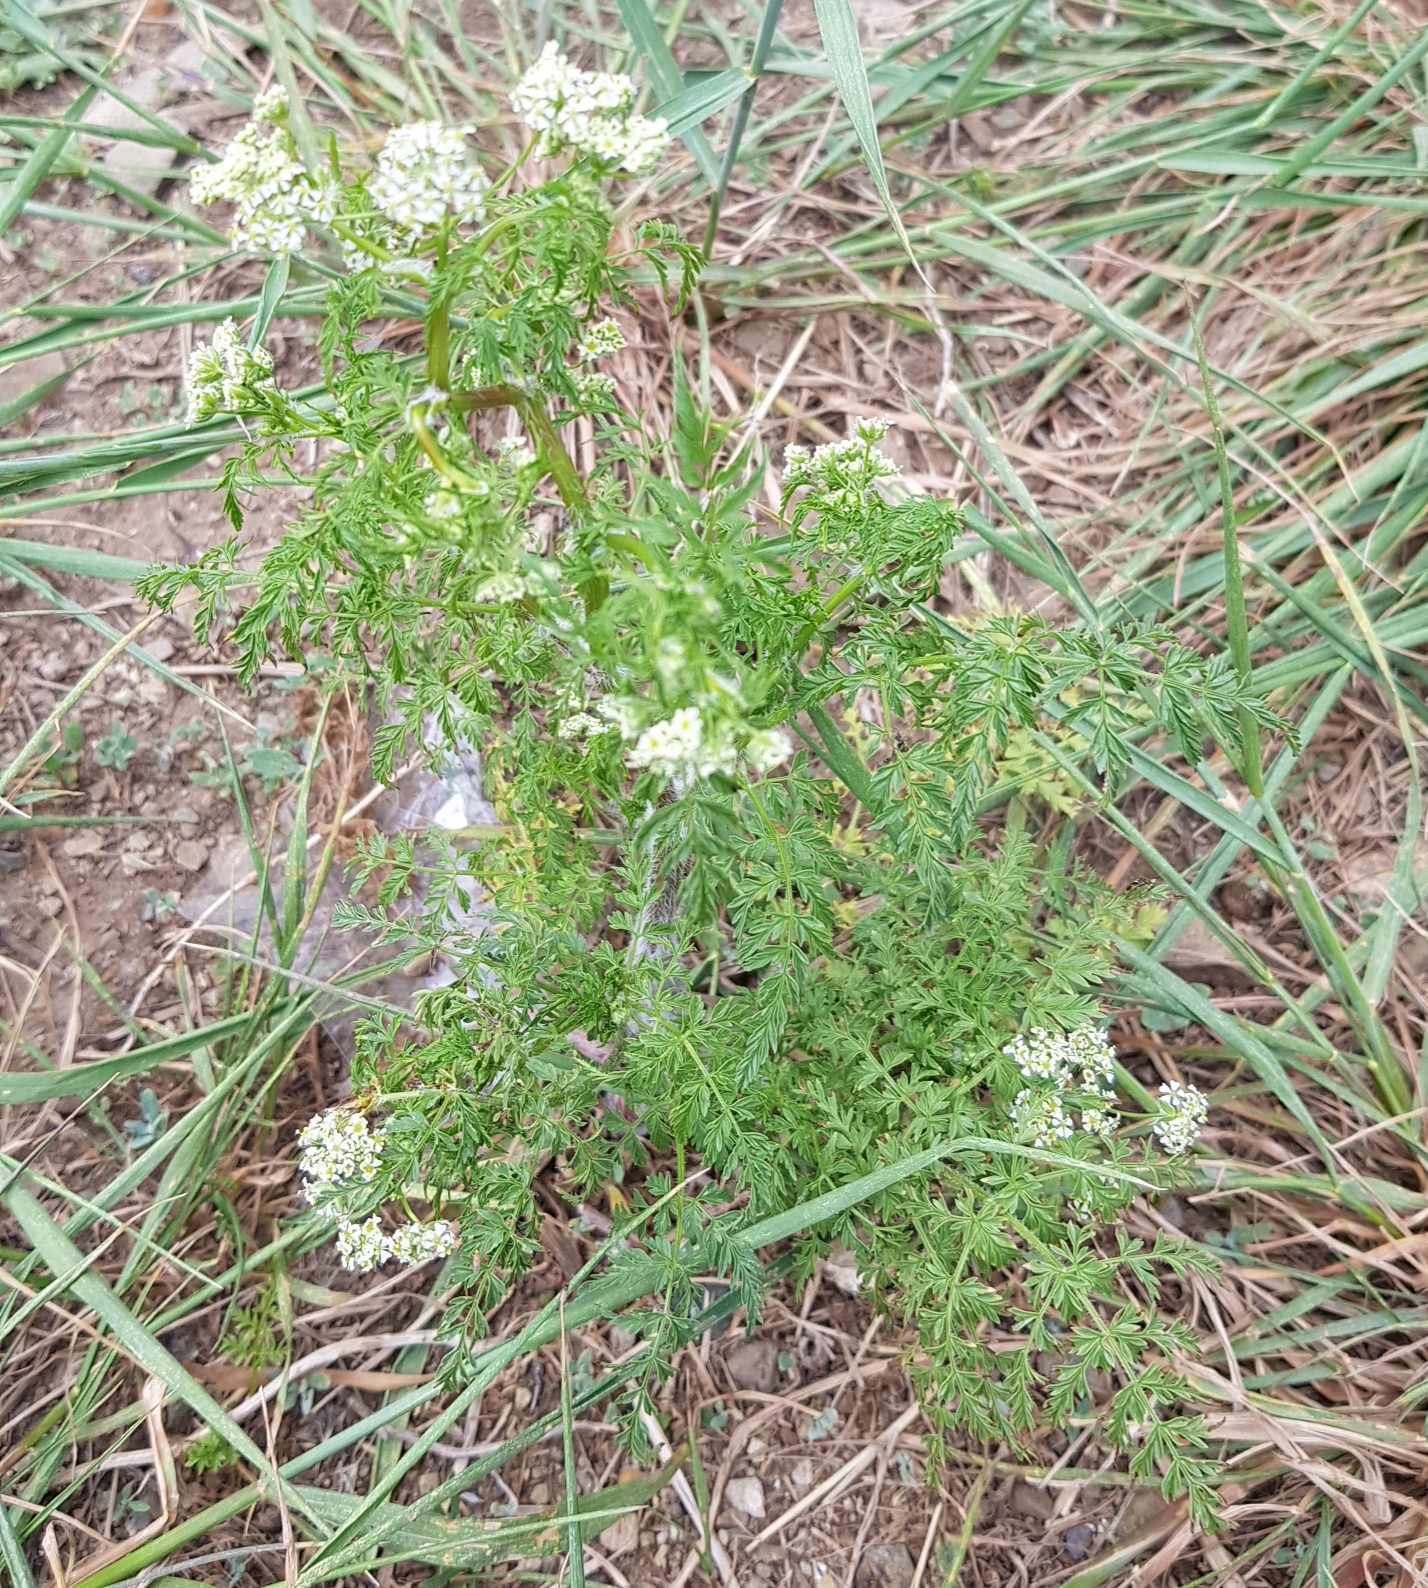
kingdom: Plantae
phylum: Tracheophyta
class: Magnoliopsida
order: Apiales
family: Apiaceae
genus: Sphallerocarpus
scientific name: Sphallerocarpus gracilis
